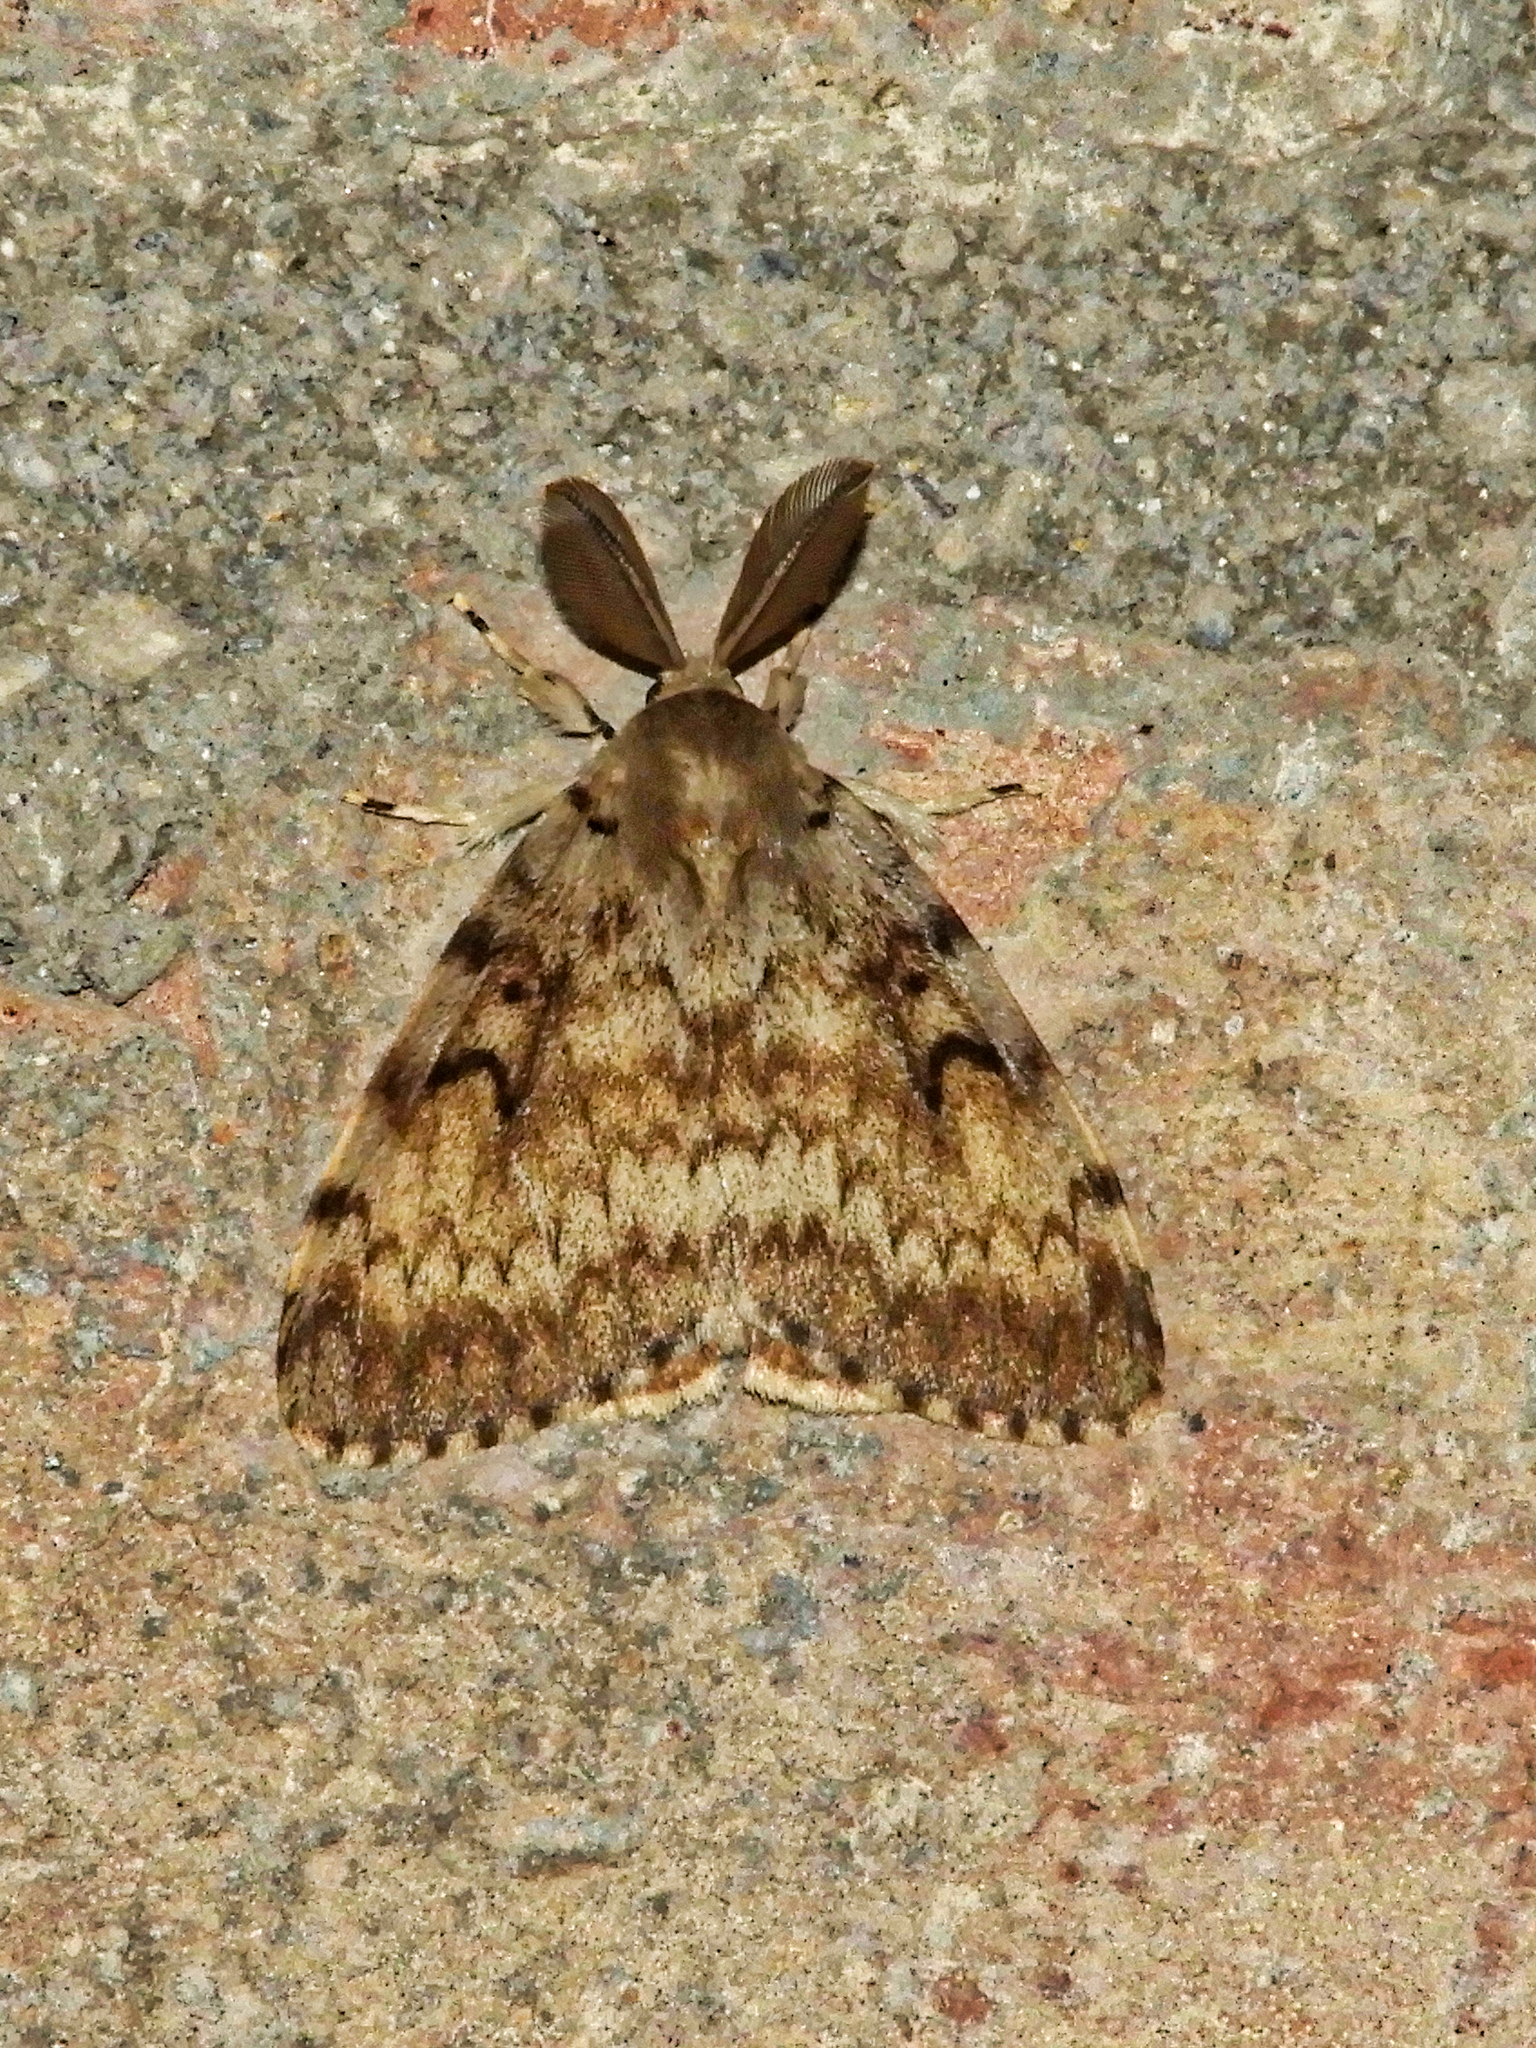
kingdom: Animalia
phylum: Arthropoda
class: Insecta
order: Lepidoptera
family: Erebidae
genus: Lymantria
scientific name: Lymantria dispar
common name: Gypsy moth
